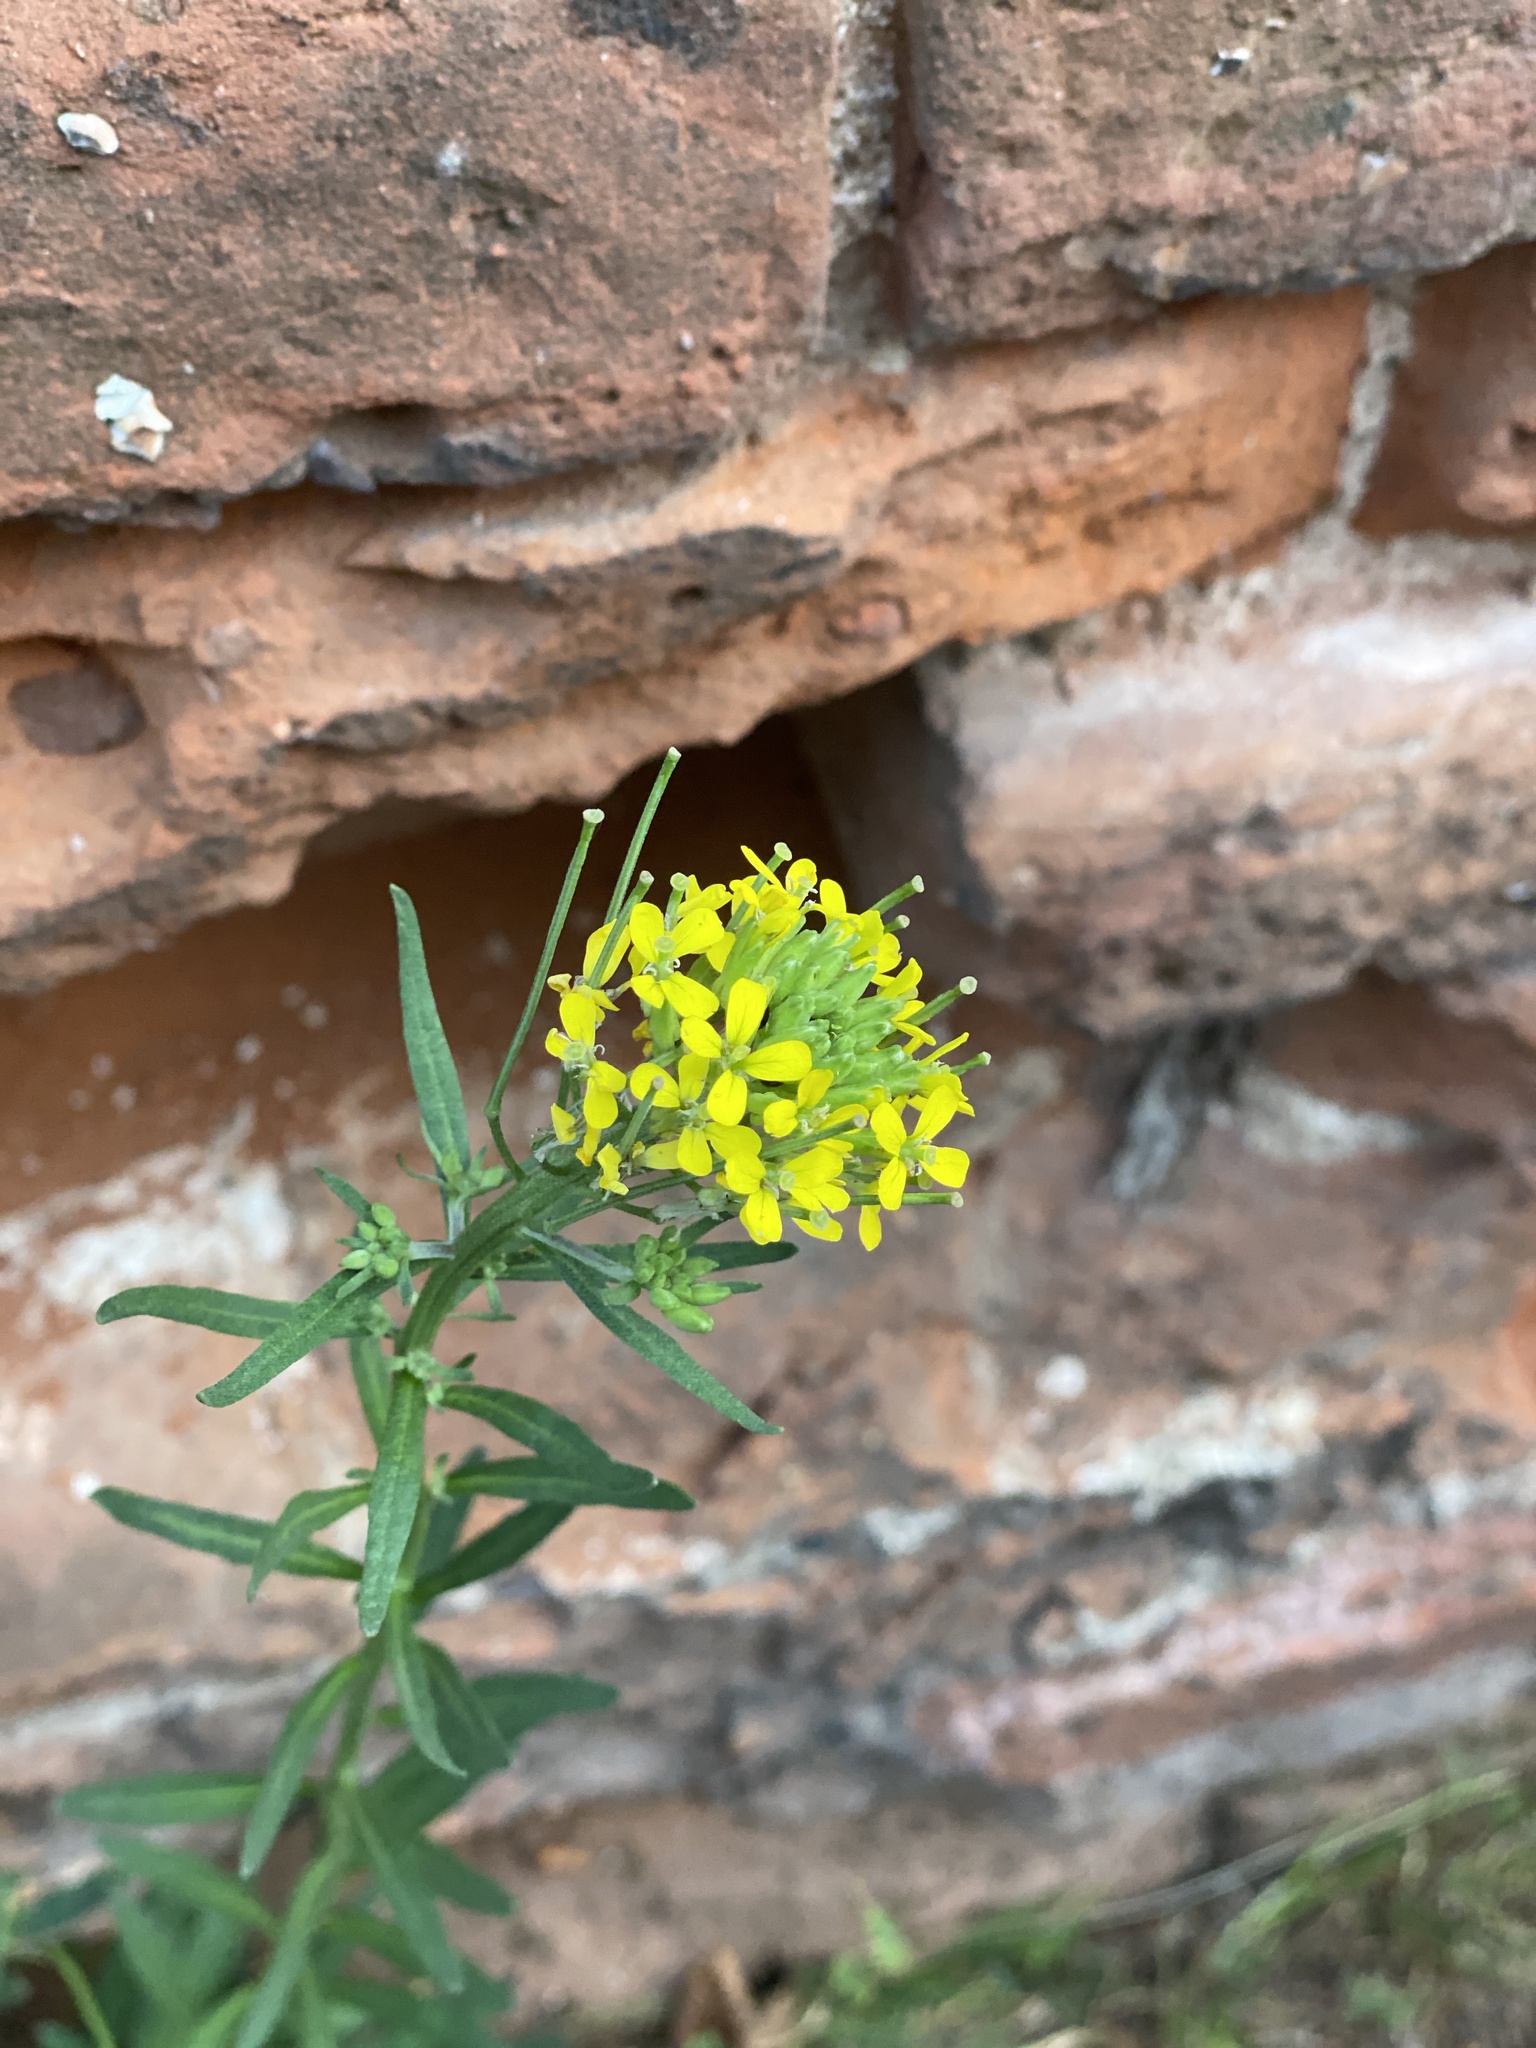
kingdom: Plantae
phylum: Tracheophyta
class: Magnoliopsida
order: Brassicales
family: Brassicaceae
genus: Erysimum
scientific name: Erysimum cheiranthoides
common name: Treacle mustard
